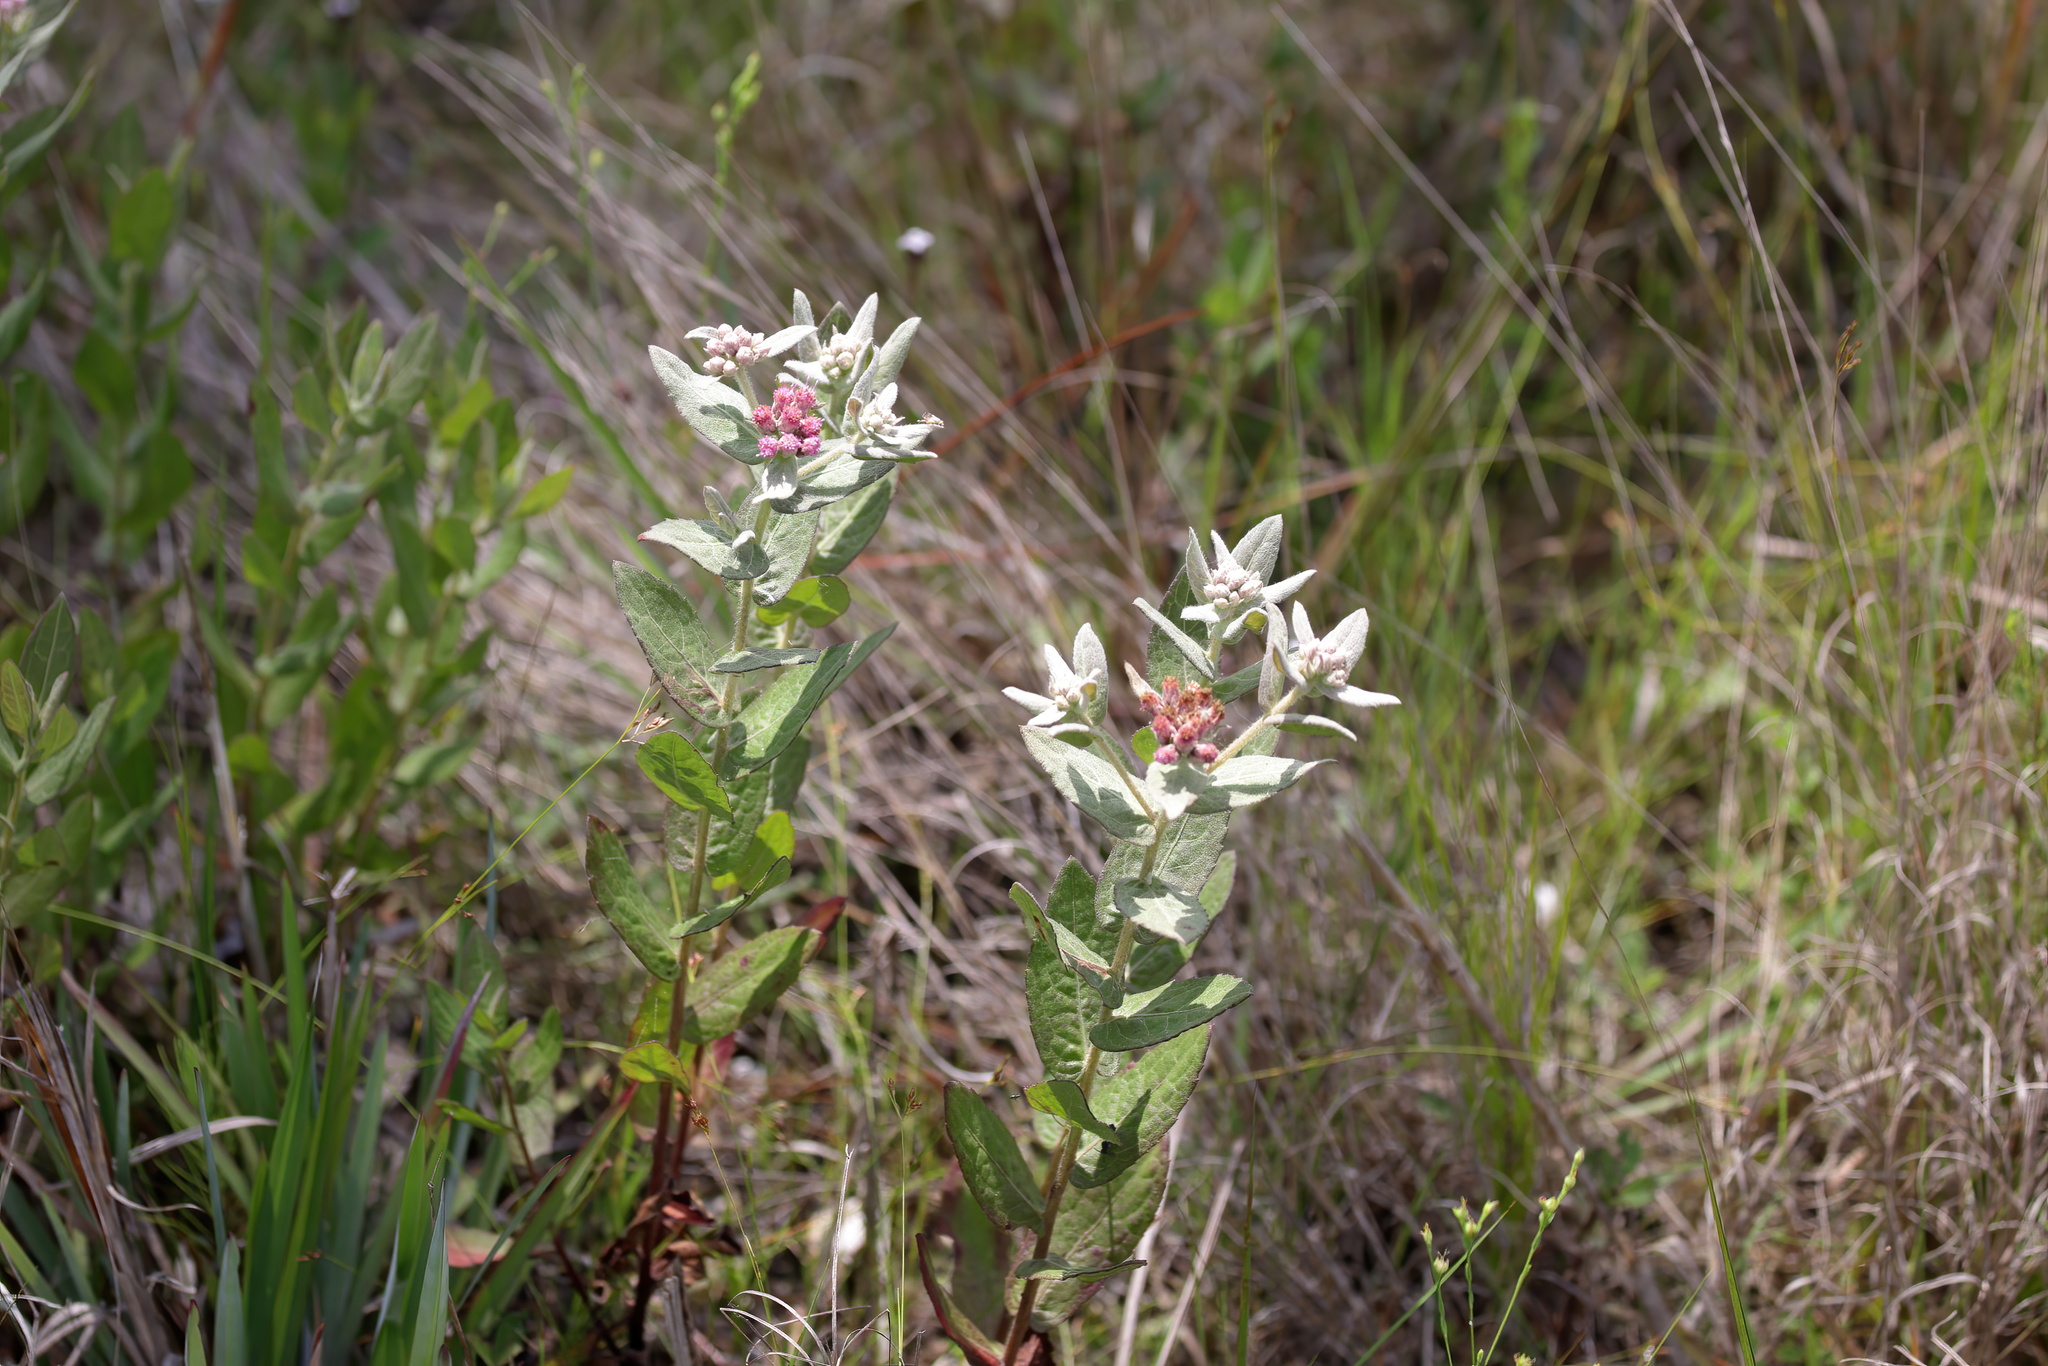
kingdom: Plantae
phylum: Tracheophyta
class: Magnoliopsida
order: Asterales
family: Asteraceae
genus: Pluchea
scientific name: Pluchea baccharis
